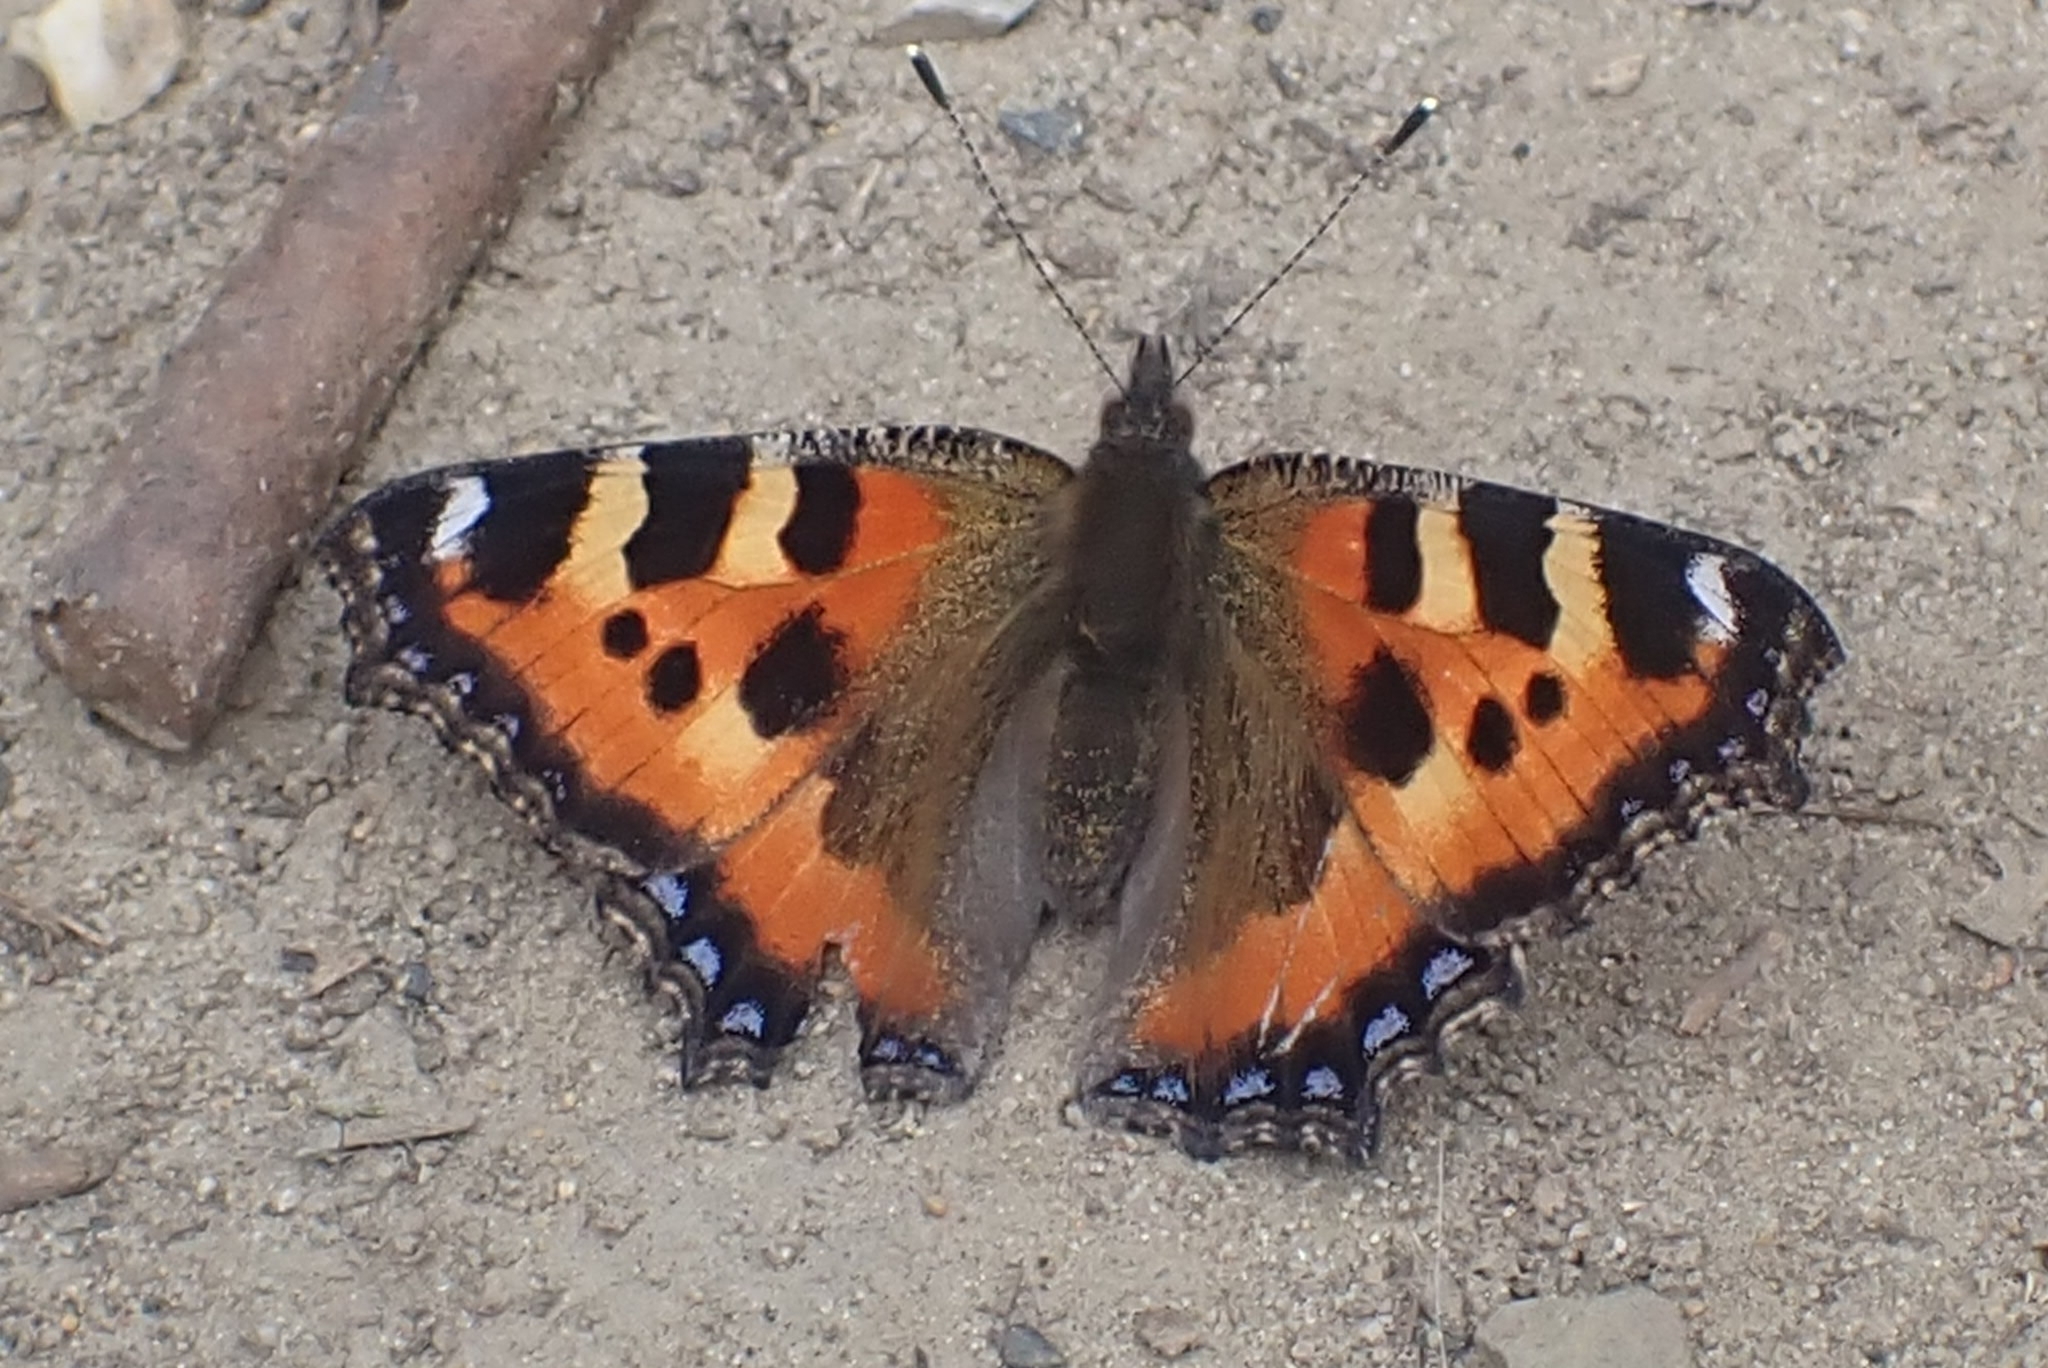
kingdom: Animalia
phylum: Arthropoda
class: Insecta
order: Lepidoptera
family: Nymphalidae
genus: Aglais
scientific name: Aglais urticae
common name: Small tortoiseshell
